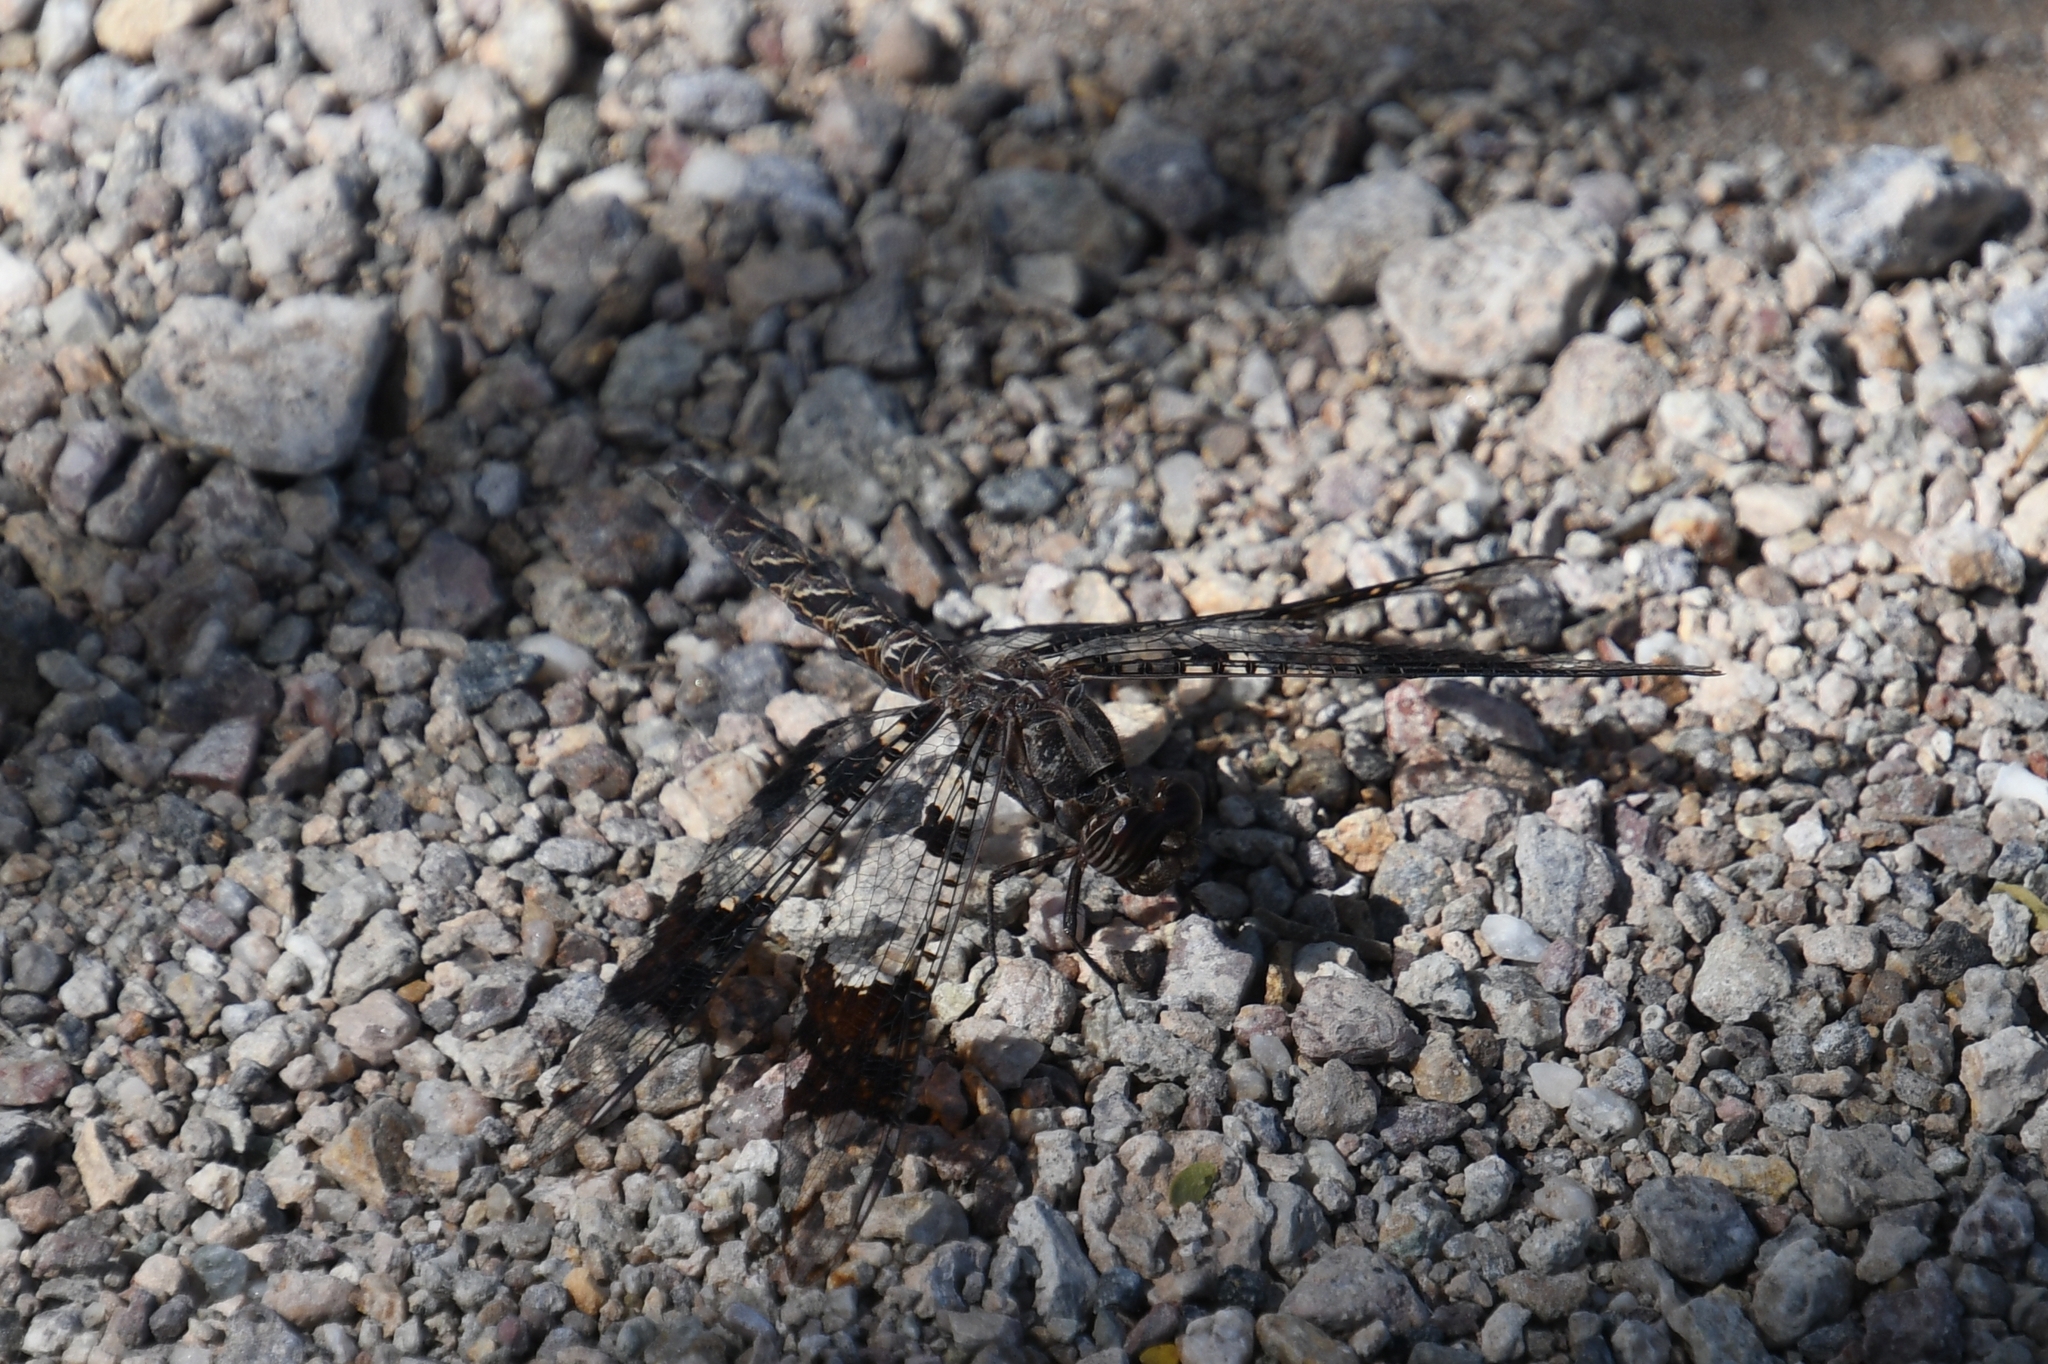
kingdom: Animalia
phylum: Arthropoda
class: Insecta
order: Odonata
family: Libellulidae
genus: Pseudoleon
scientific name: Pseudoleon superbus
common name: Filigree skimmer
